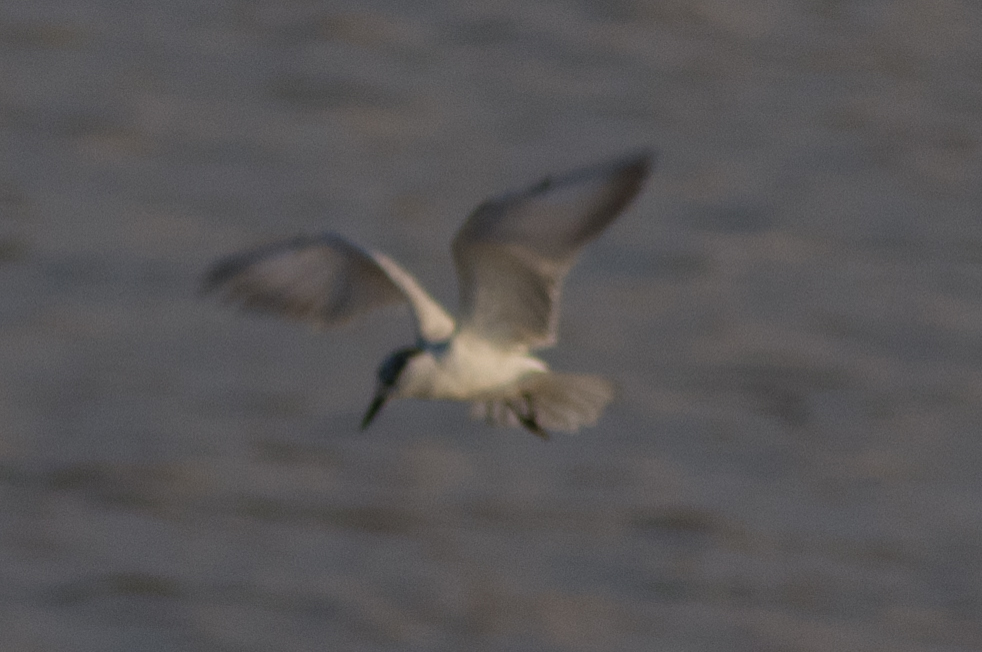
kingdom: Animalia
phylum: Chordata
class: Aves
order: Charadriiformes
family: Laridae
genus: Chlidonias
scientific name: Chlidonias hybrida
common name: Whiskered tern
